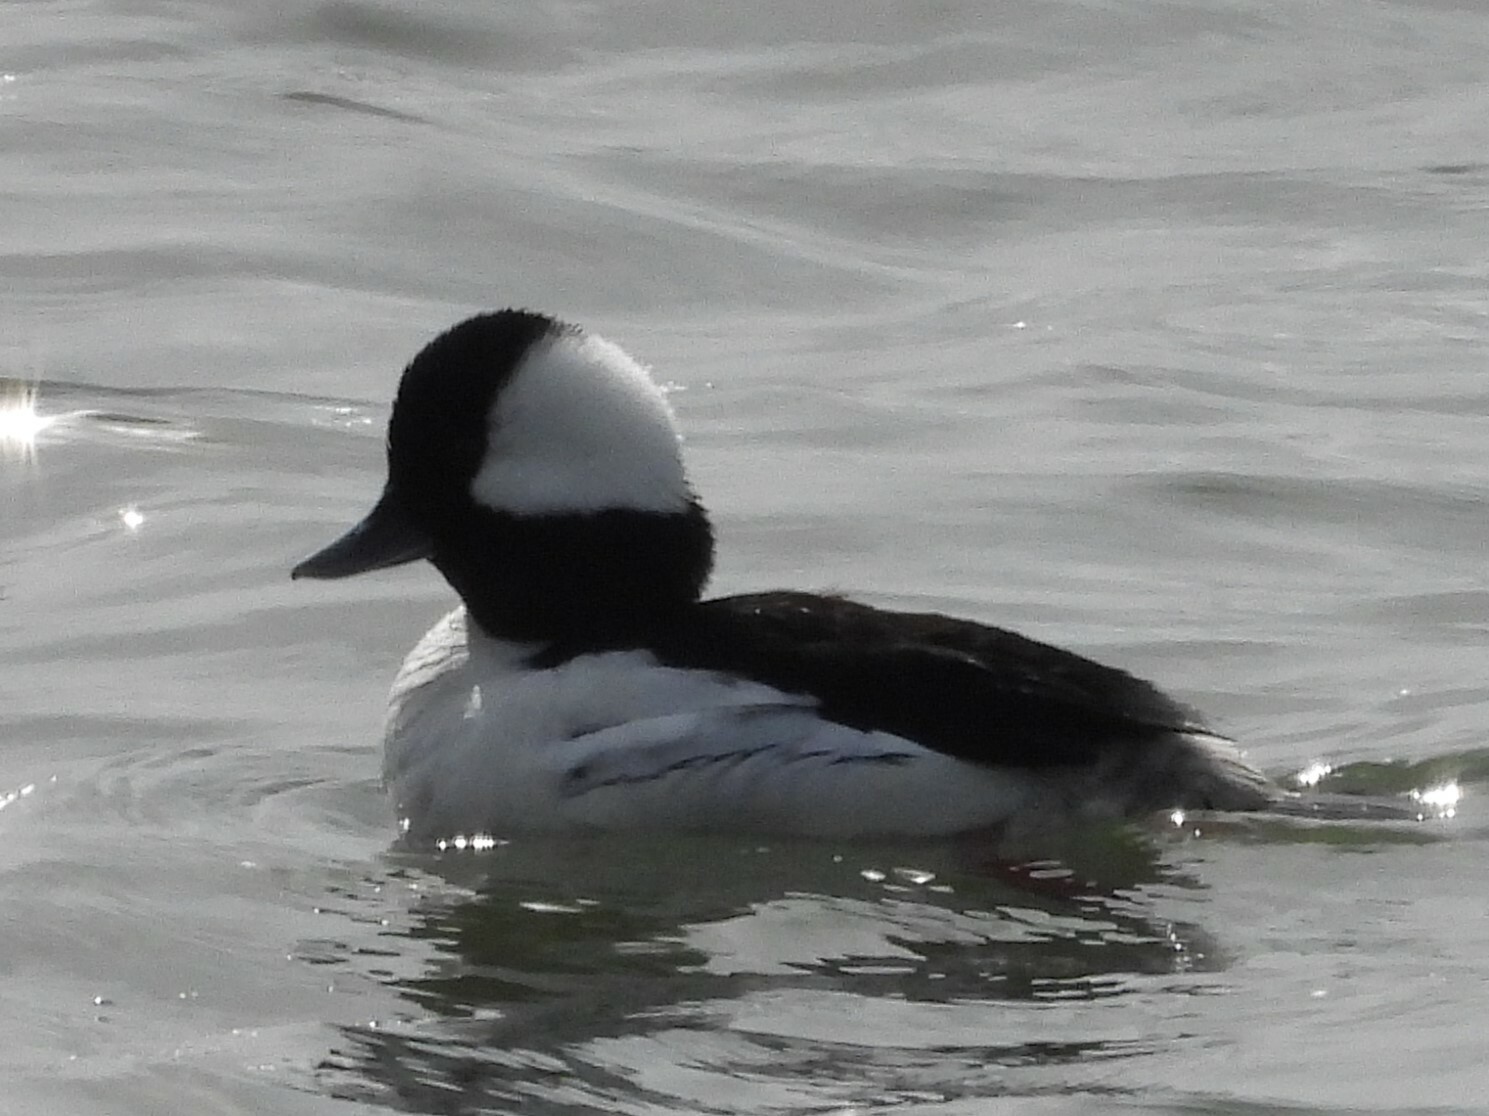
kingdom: Animalia
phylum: Chordata
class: Aves
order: Anseriformes
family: Anatidae
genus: Bucephala
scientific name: Bucephala albeola
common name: Bufflehead
